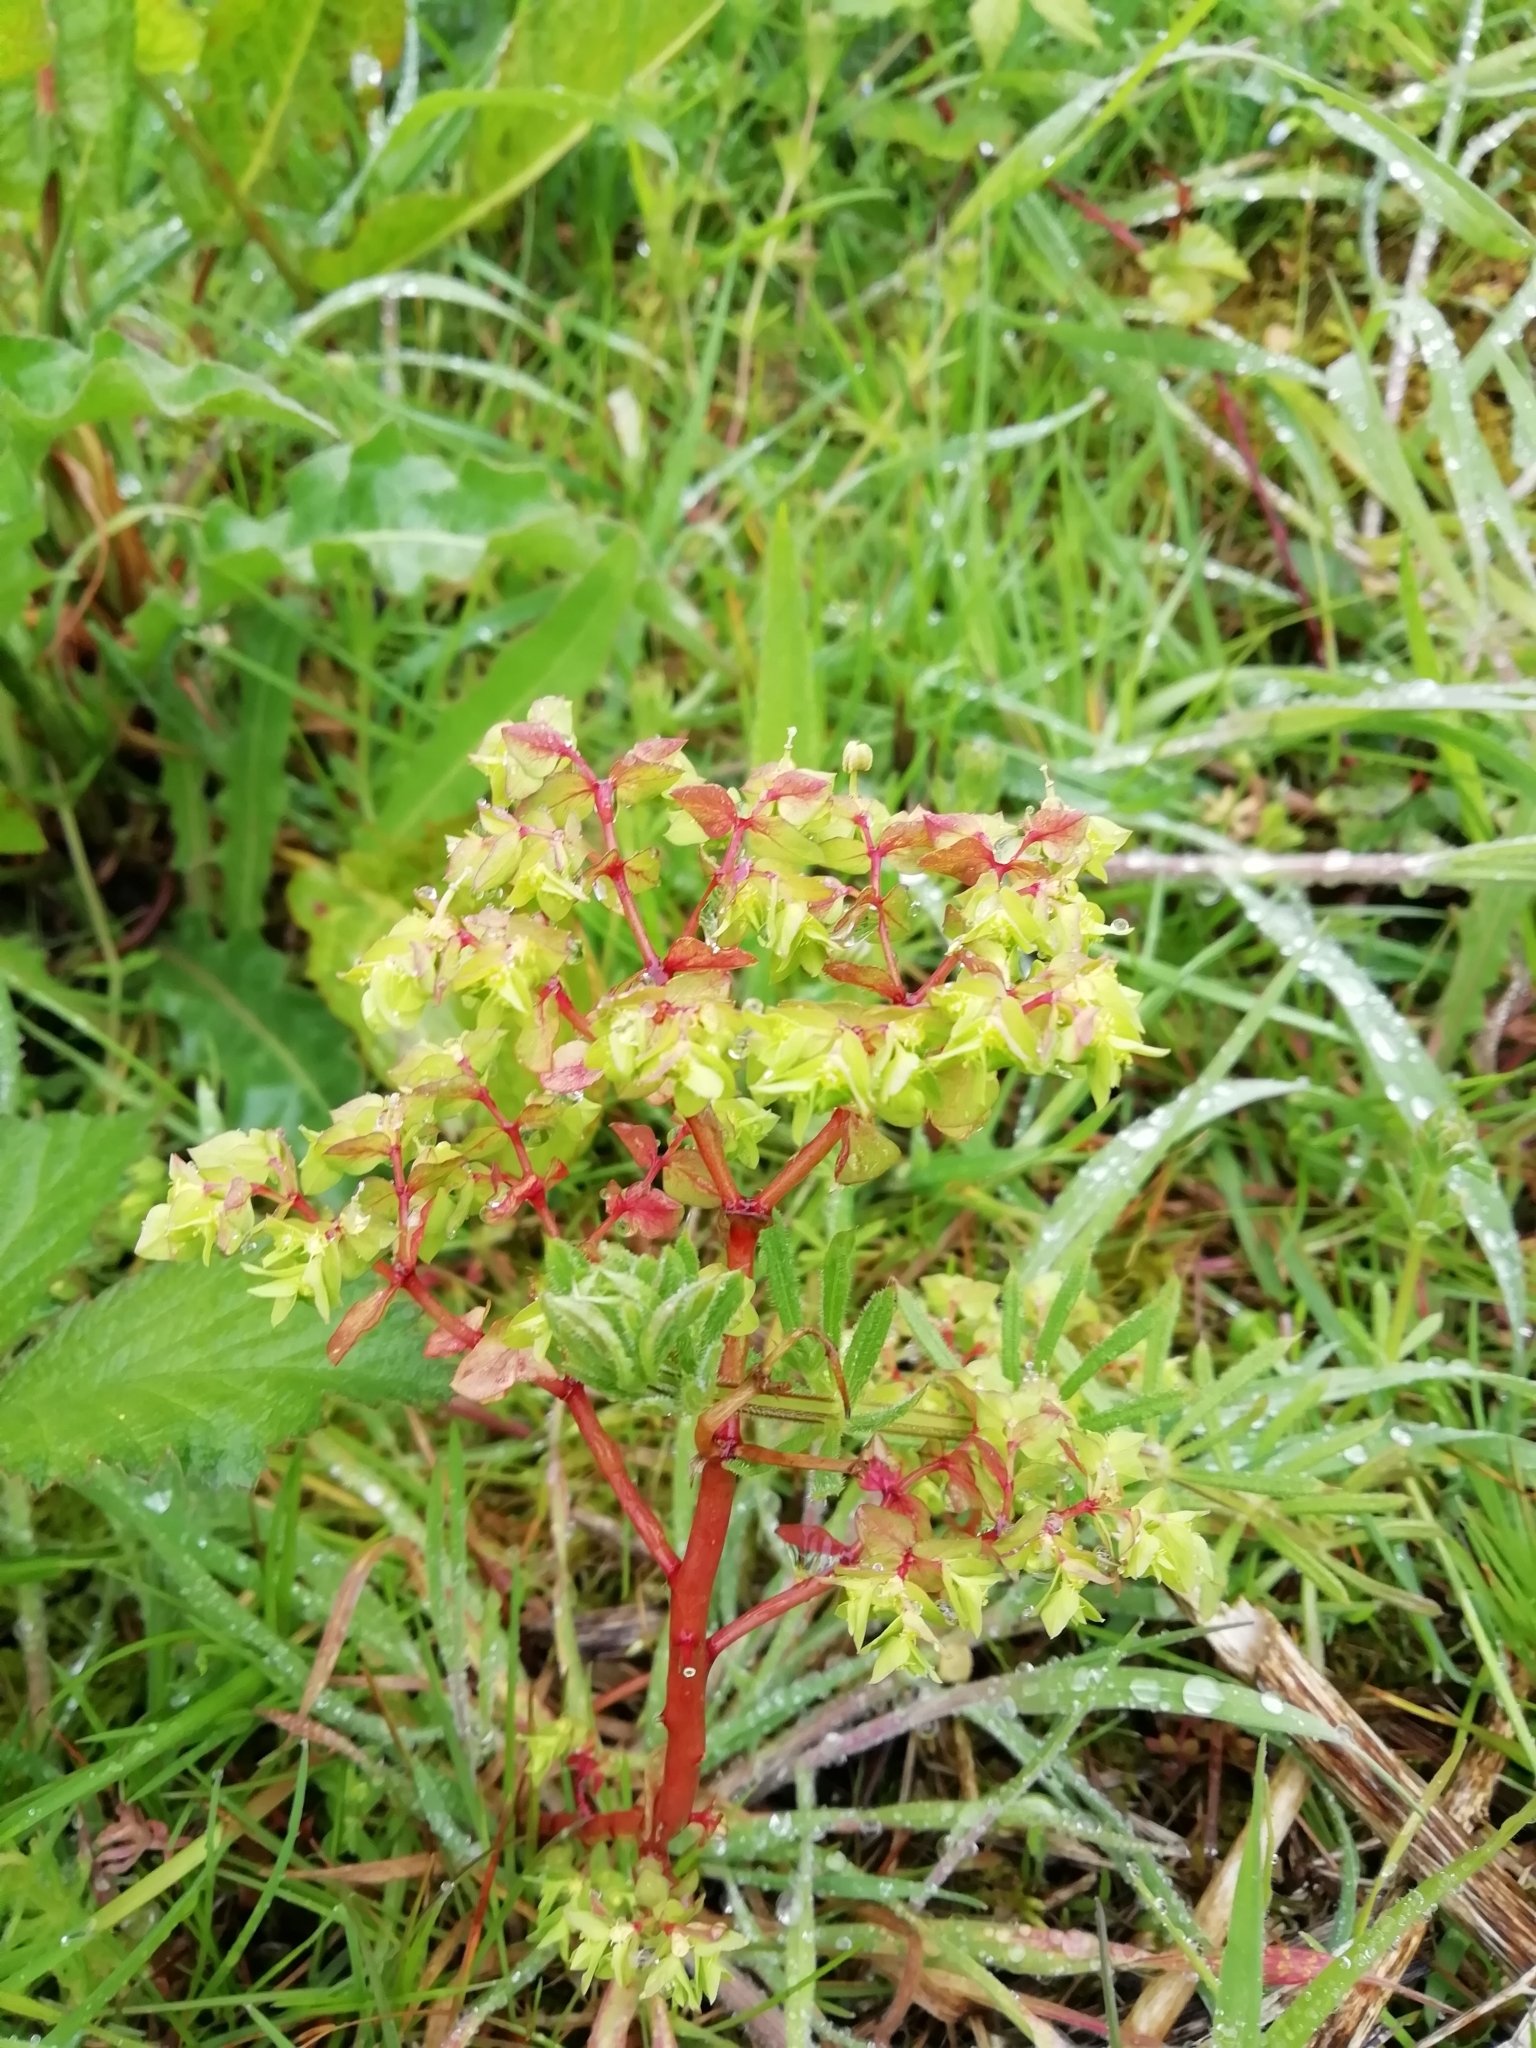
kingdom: Plantae
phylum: Tracheophyta
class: Magnoliopsida
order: Malpighiales
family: Euphorbiaceae
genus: Euphorbia
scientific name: Euphorbia peplus
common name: Petty spurge
